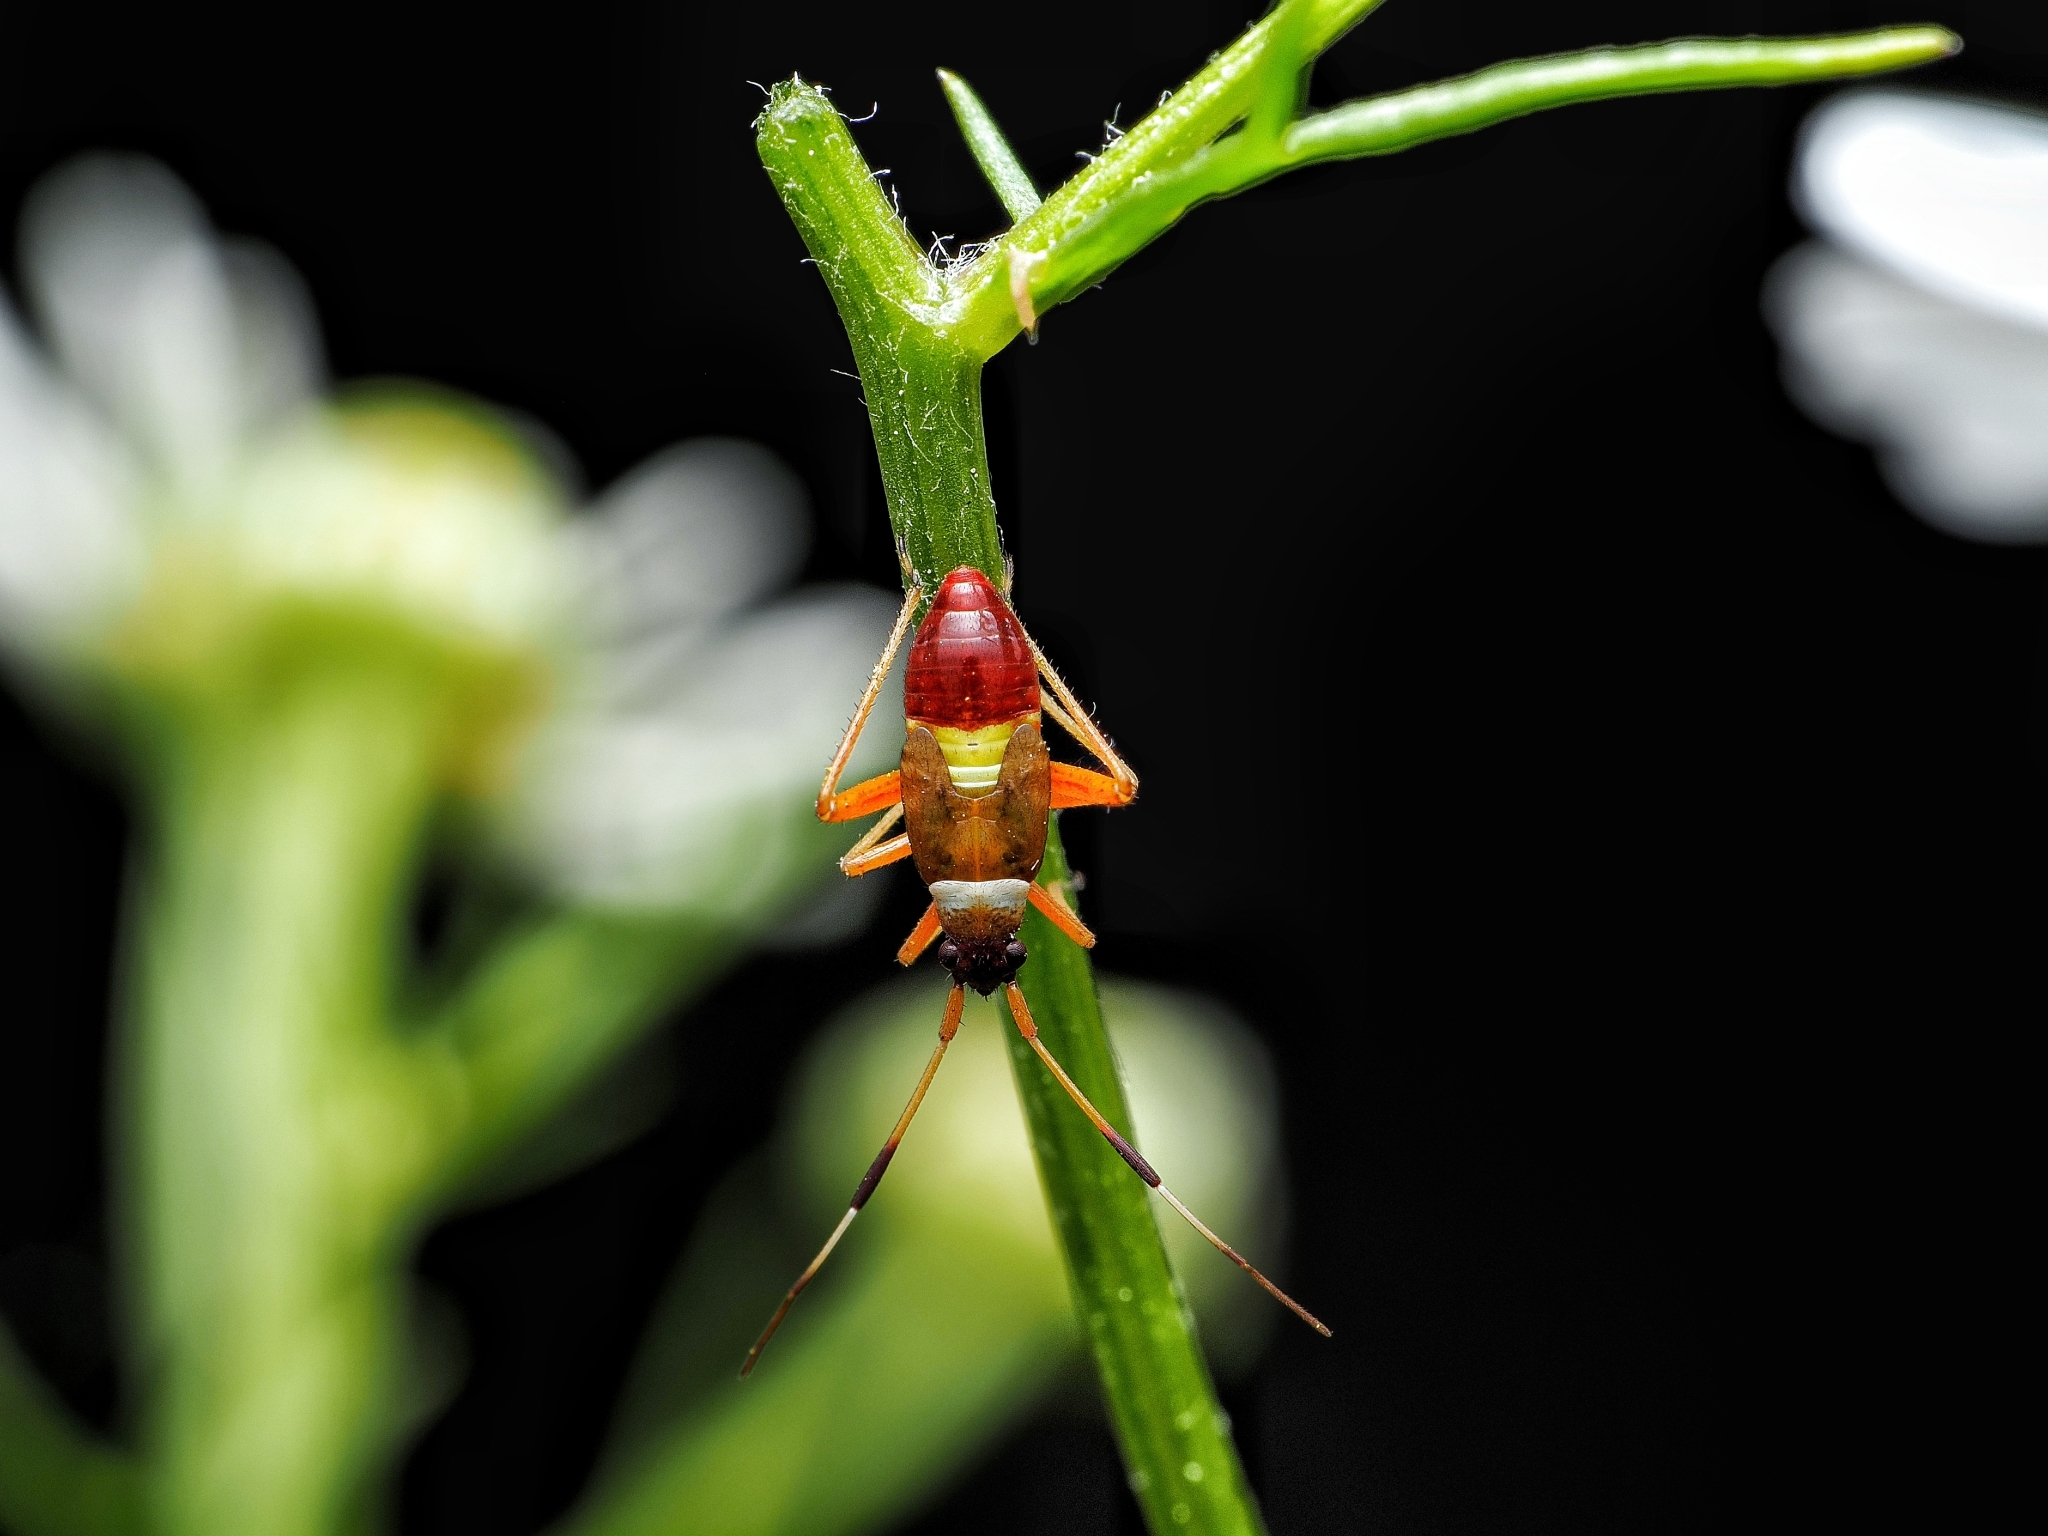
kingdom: Animalia
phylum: Arthropoda
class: Insecta
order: Hemiptera
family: Miridae
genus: Closterotomus
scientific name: Closterotomus biclavatus
